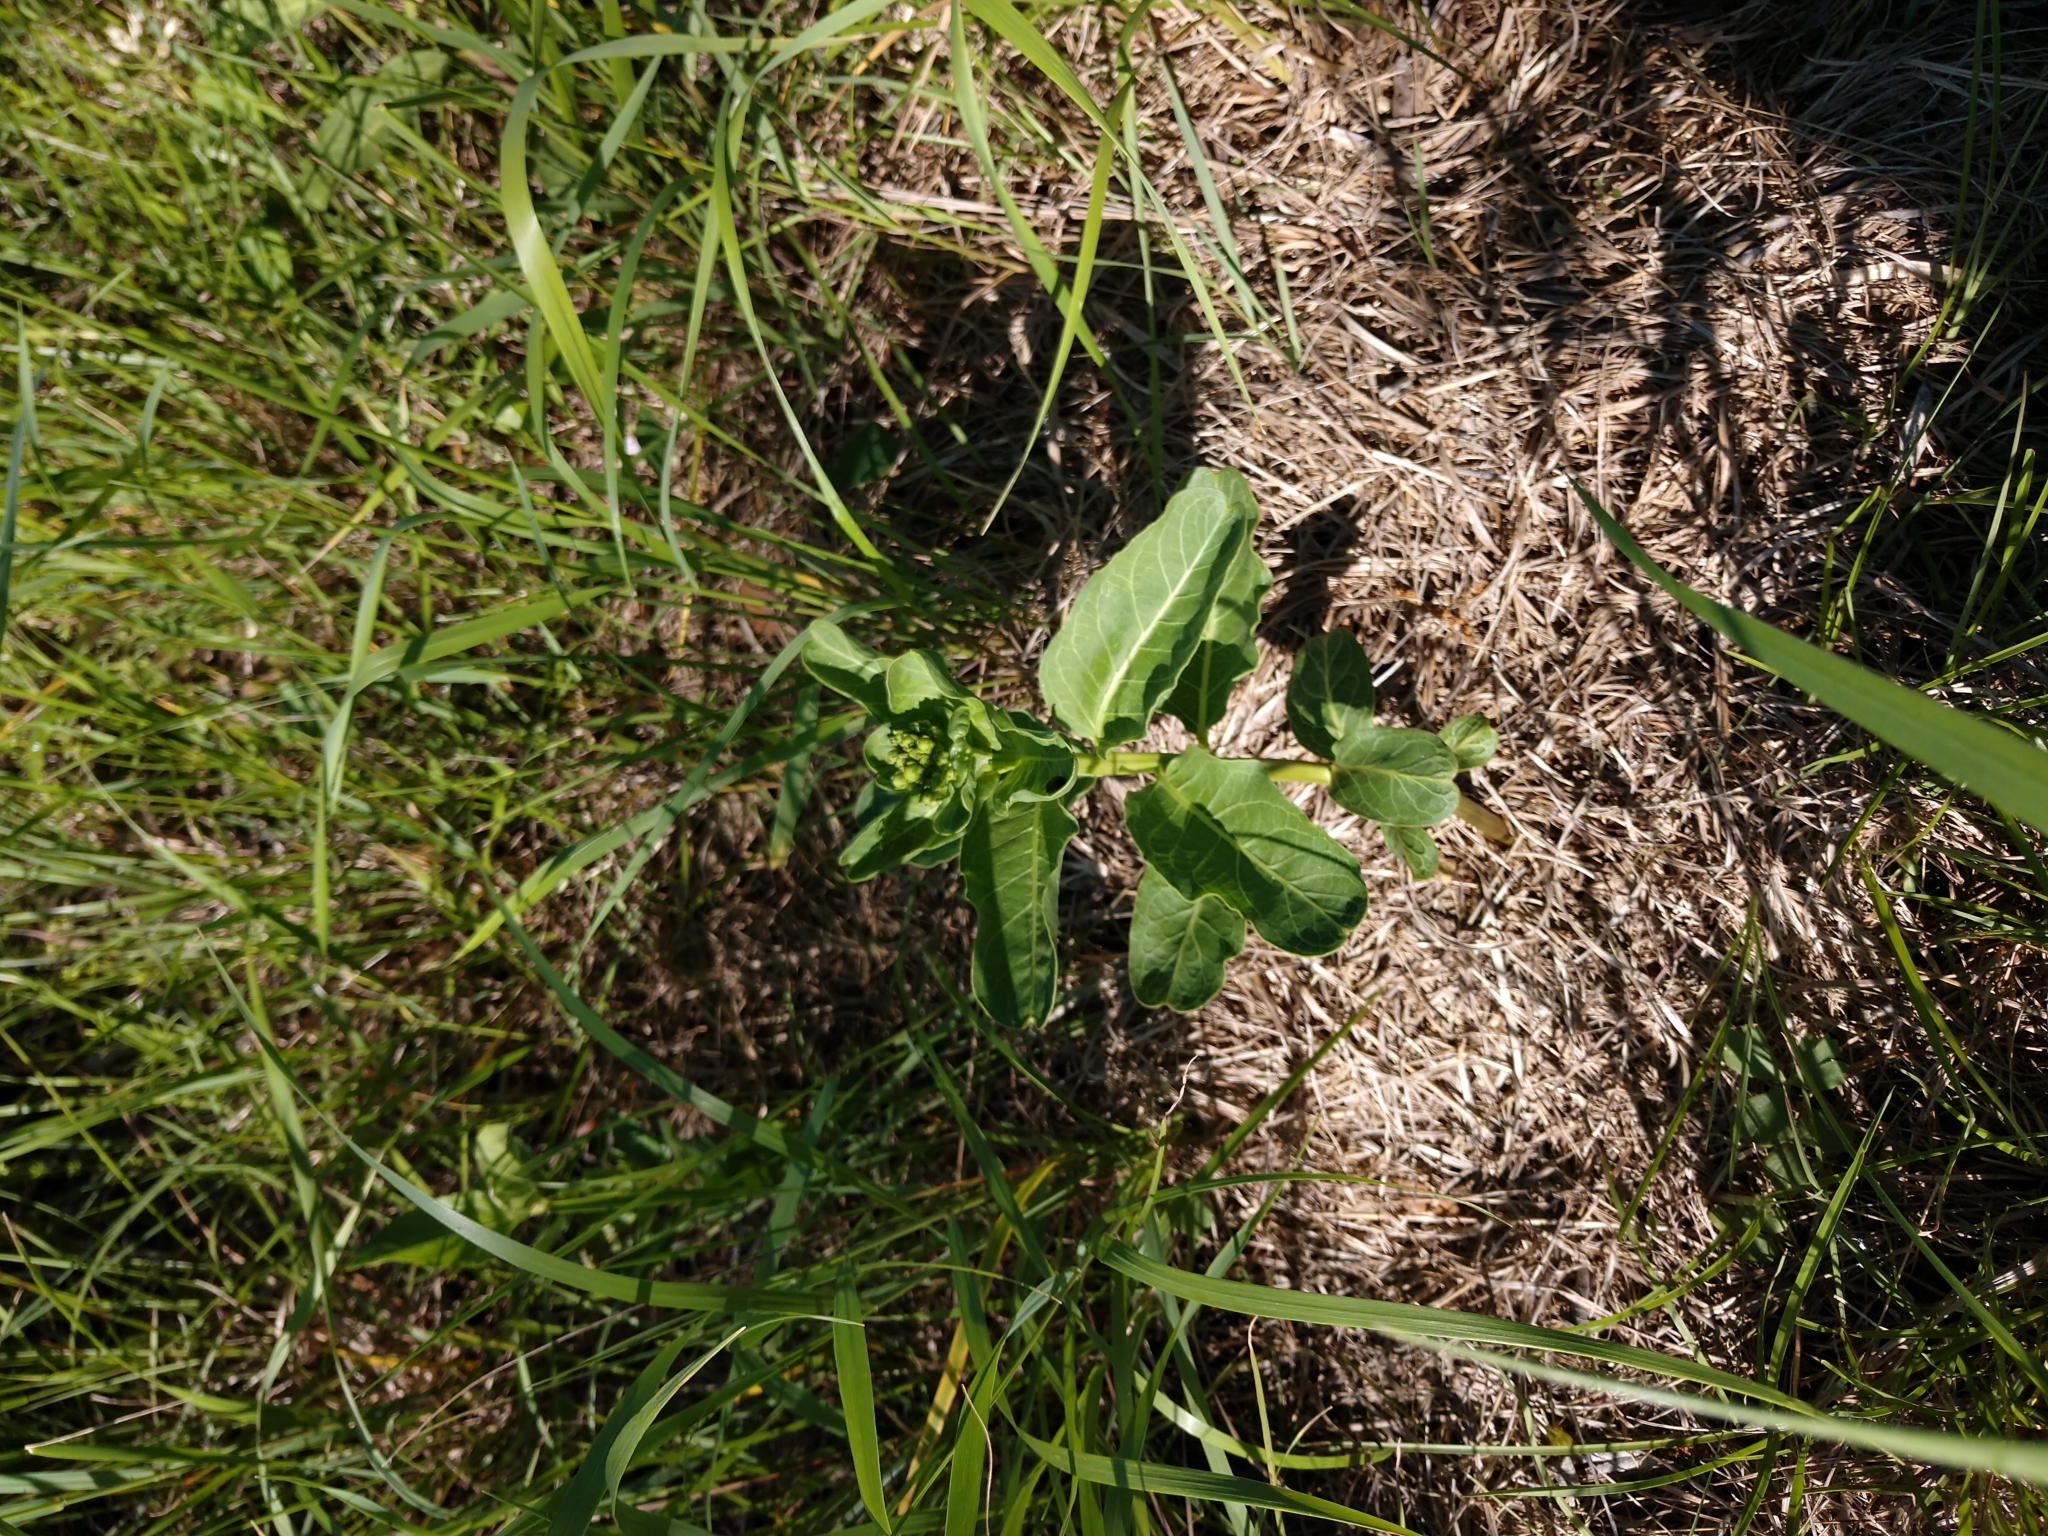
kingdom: Plantae
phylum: Tracheophyta
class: Magnoliopsida
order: Gentianales
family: Apocynaceae
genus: Asclepias
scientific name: Asclepias viridis
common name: Antelope-horns
